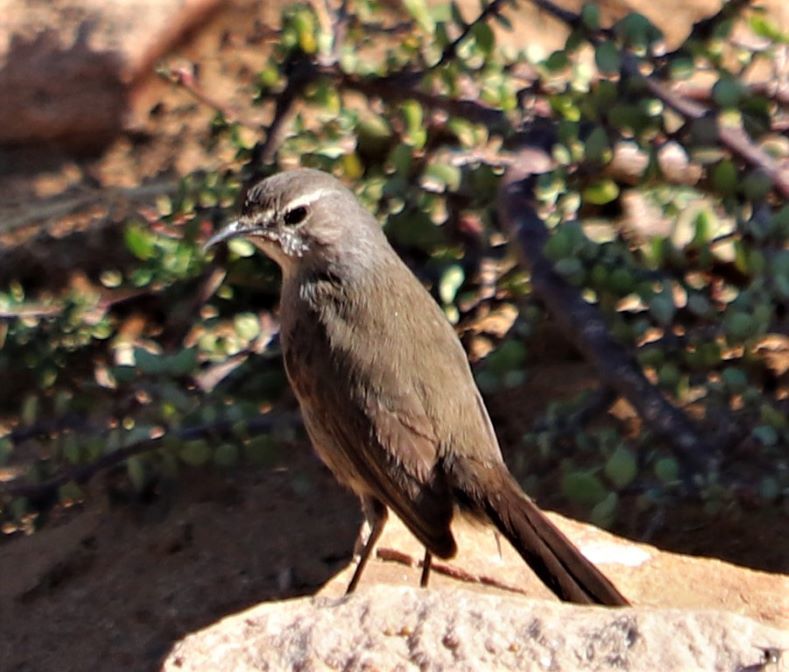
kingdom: Animalia
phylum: Chordata
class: Aves
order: Passeriformes
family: Muscicapidae
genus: Erythropygia
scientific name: Erythropygia coryphoeus
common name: Karoo scrub robin
